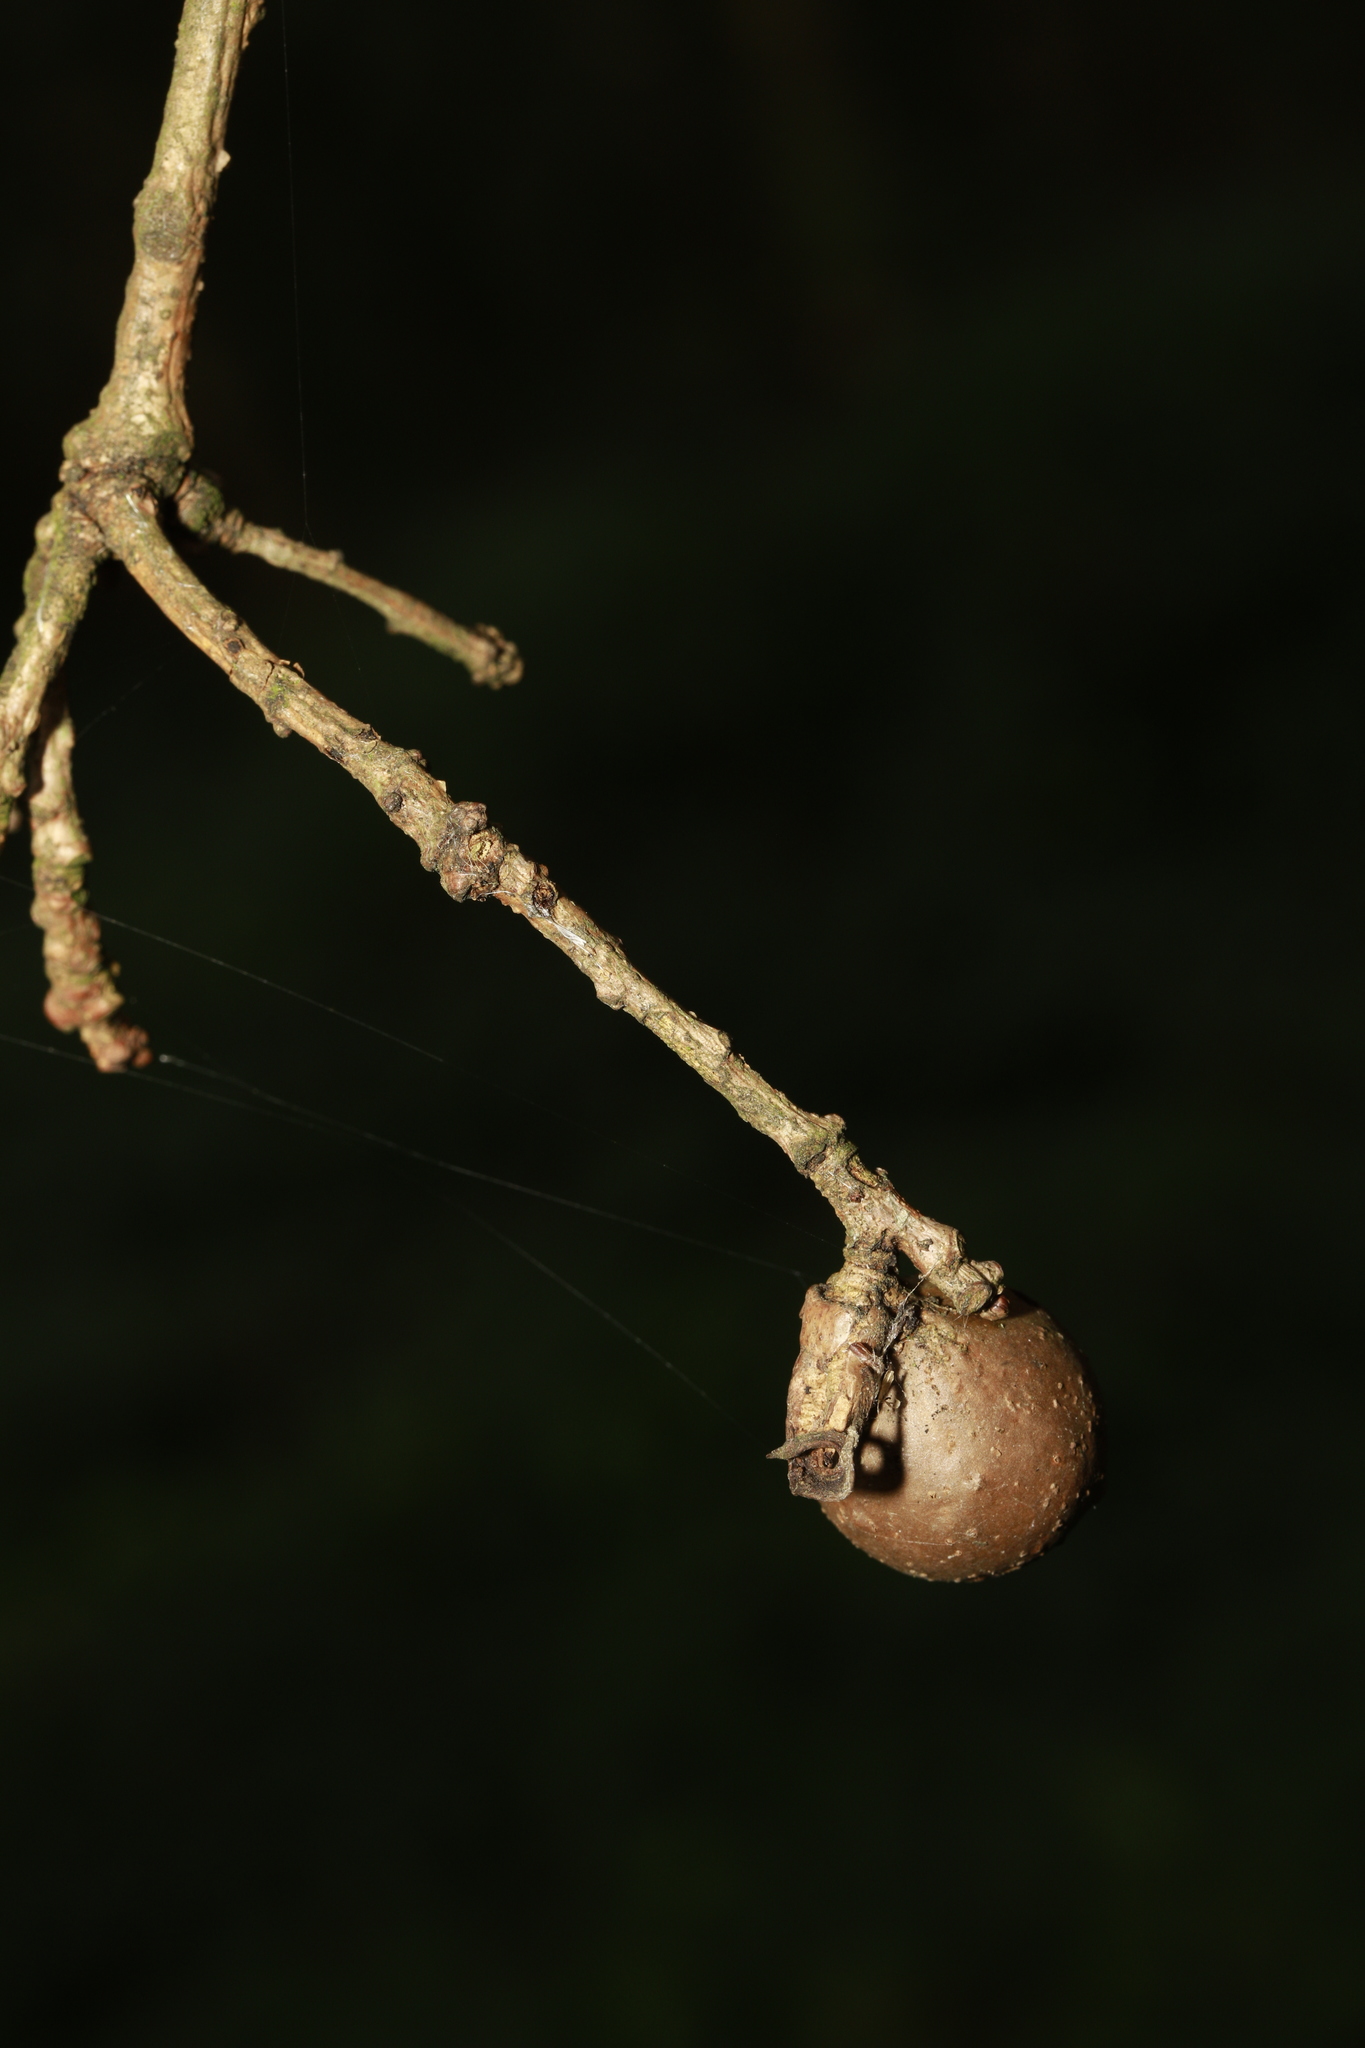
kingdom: Animalia
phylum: Arthropoda
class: Insecta
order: Hymenoptera
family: Cynipidae
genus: Andricus
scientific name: Andricus kollari
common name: Marble gall
